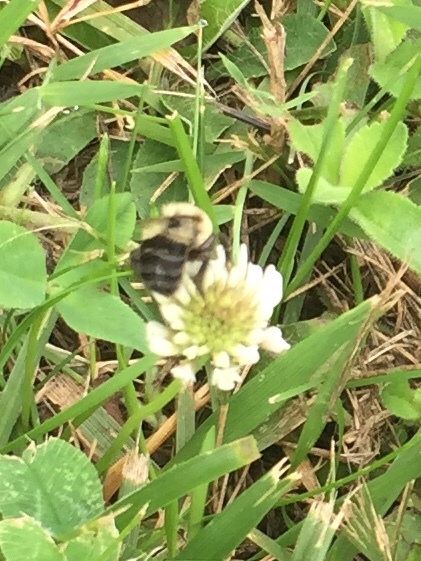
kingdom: Animalia
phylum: Arthropoda
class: Insecta
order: Hymenoptera
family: Apidae
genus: Bombus
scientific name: Bombus impatiens
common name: Common eastern bumble bee
